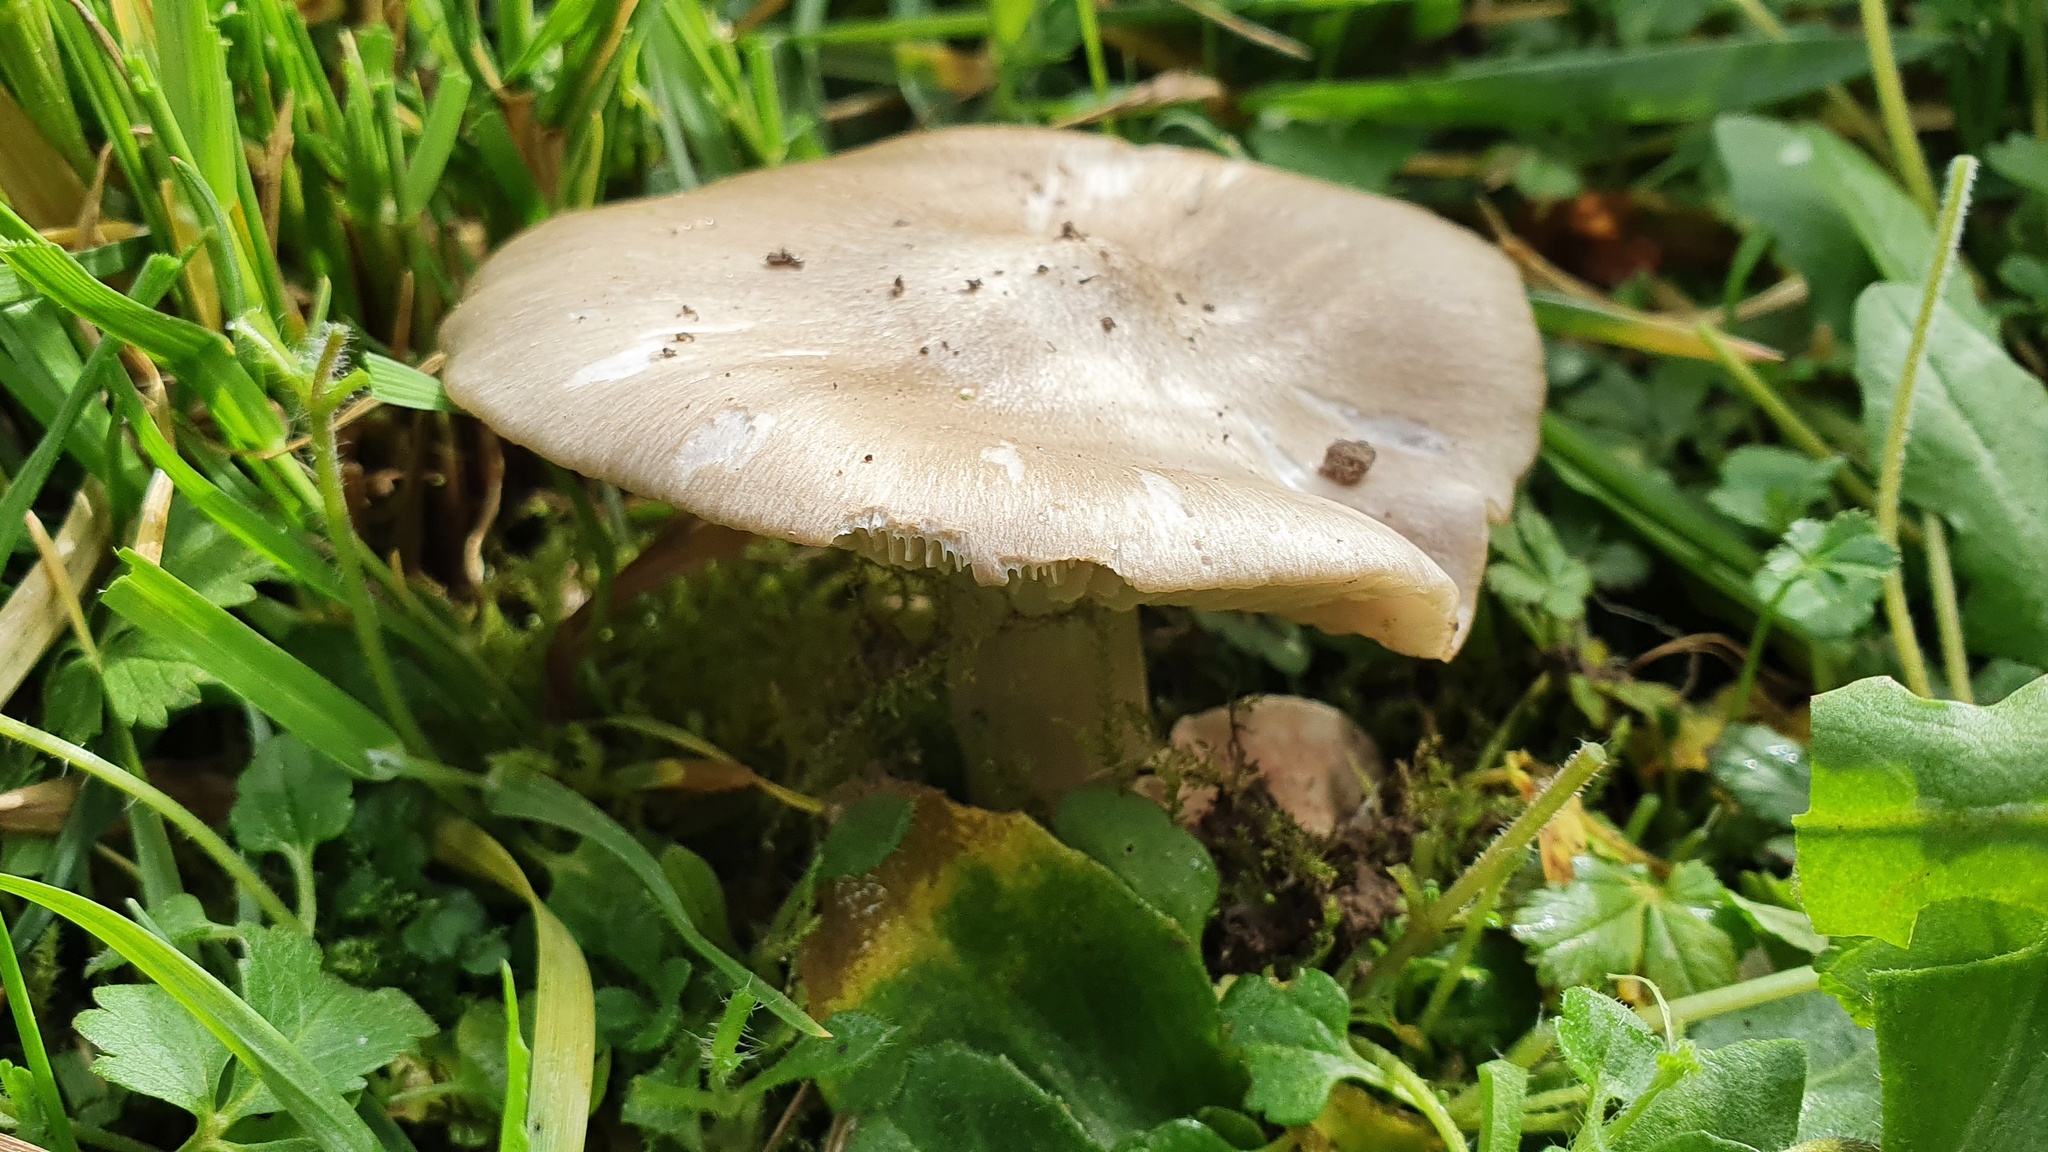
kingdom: Fungi
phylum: Basidiomycota
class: Agaricomycetes
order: Agaricales
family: Pluteaceae
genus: Volvopluteus
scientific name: Volvopluteus gloiocephalus
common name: Stubble rosegill
